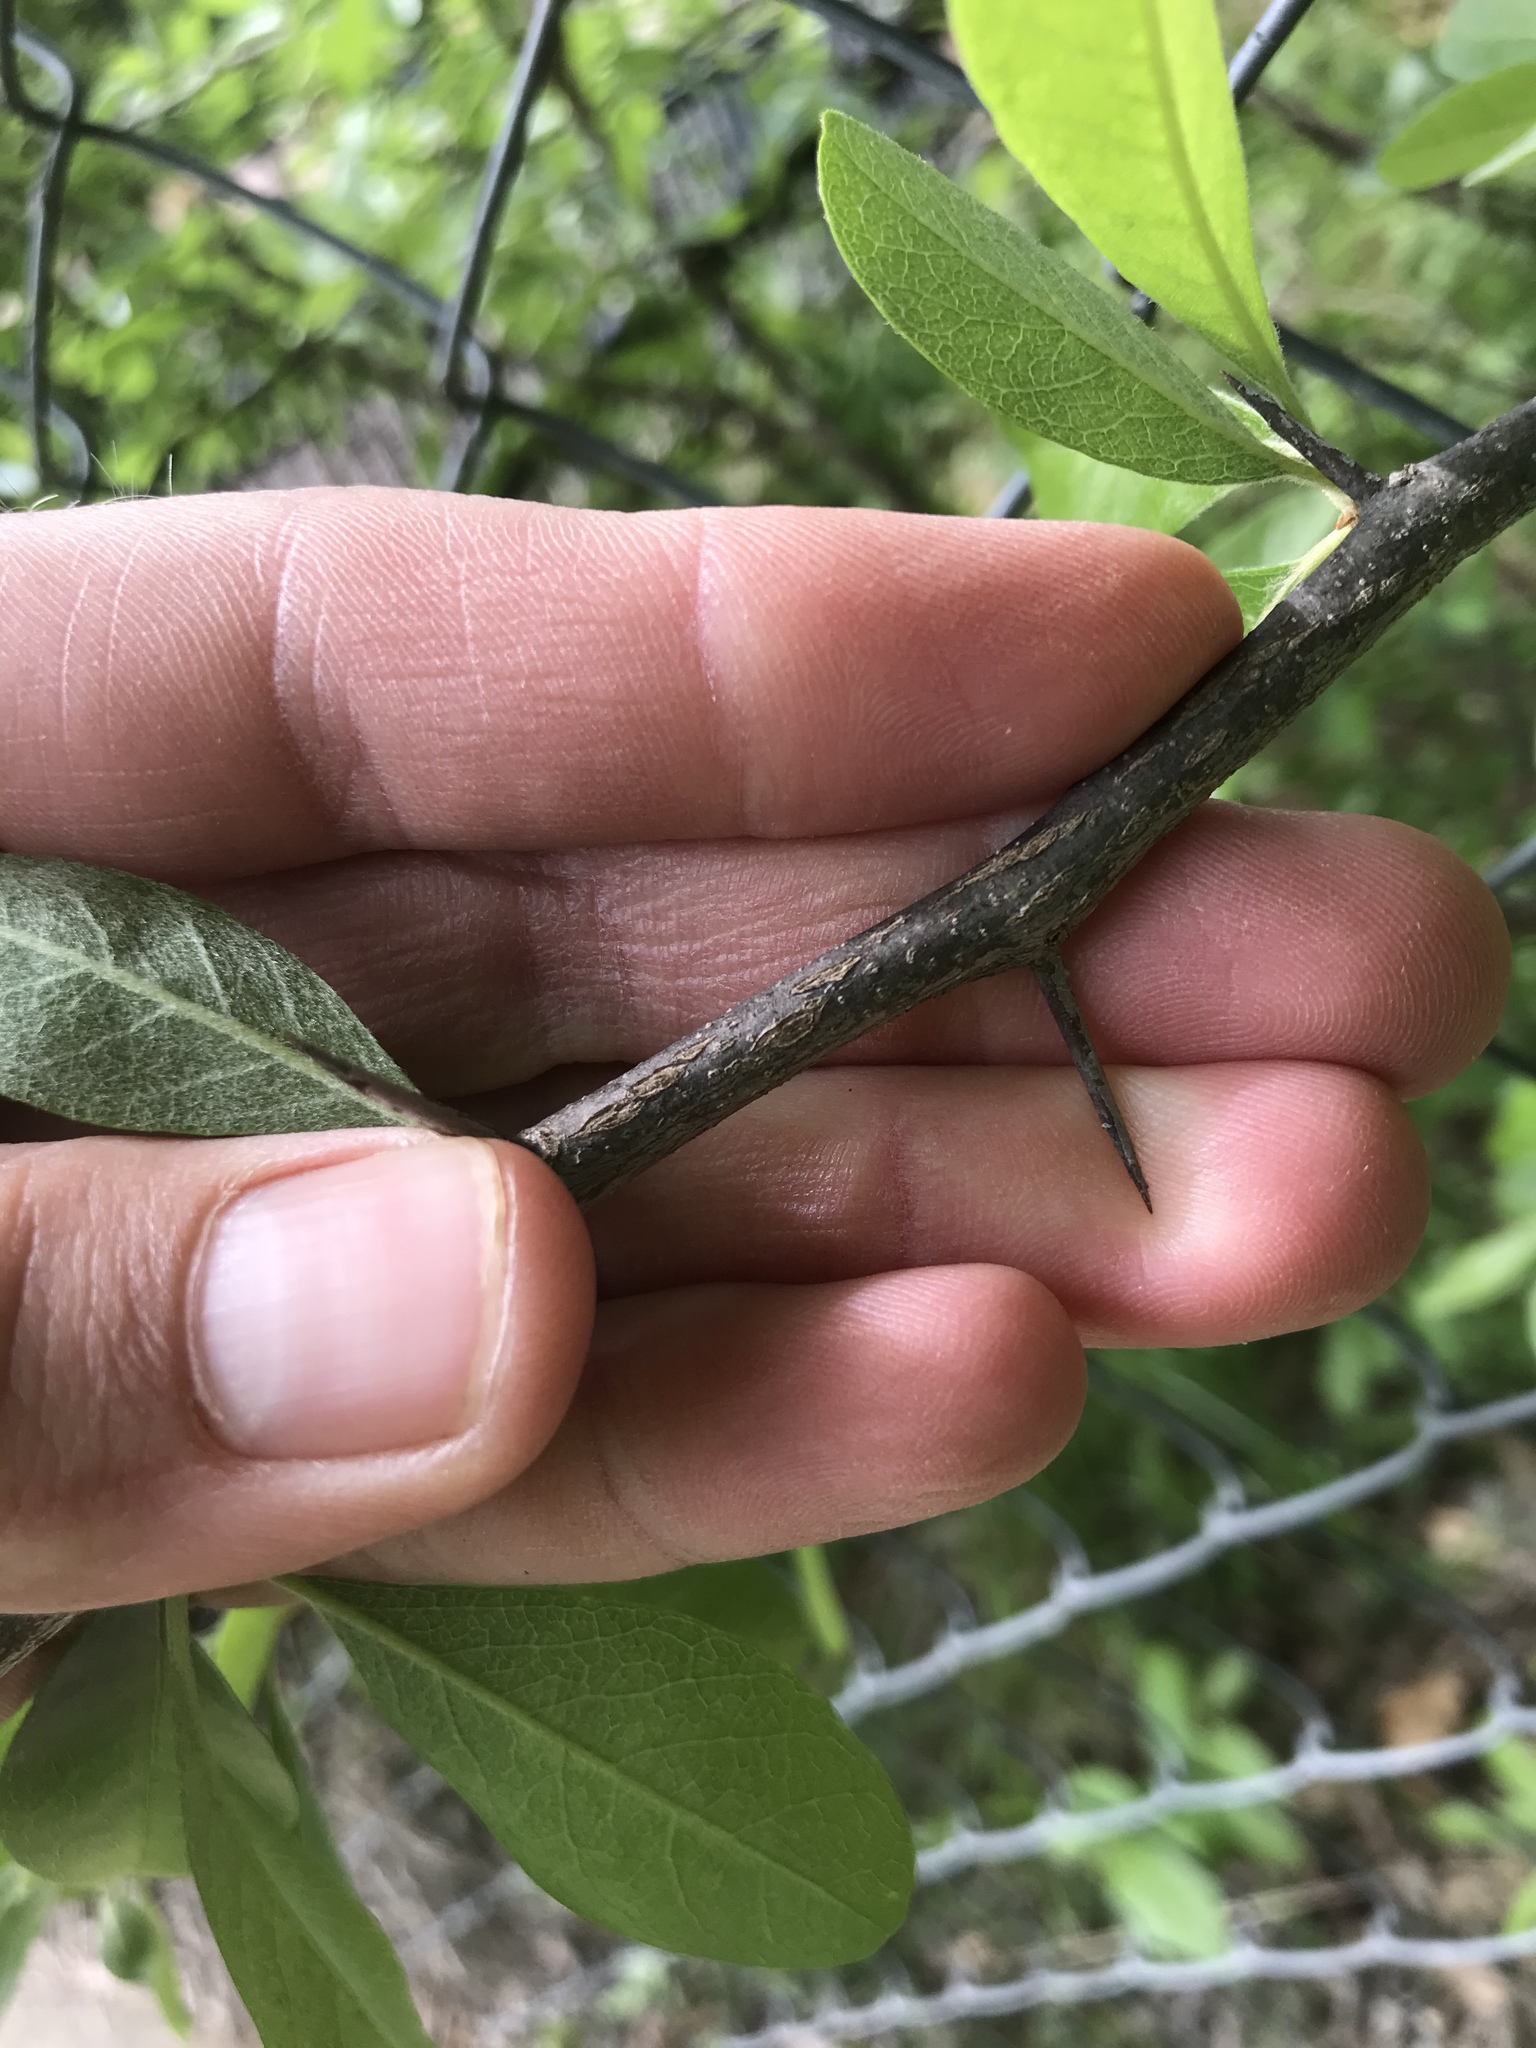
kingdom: Plantae
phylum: Tracheophyta
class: Magnoliopsida
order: Ericales
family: Sapotaceae
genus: Sideroxylon
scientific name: Sideroxylon lanuginosum
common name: Chittamwood
